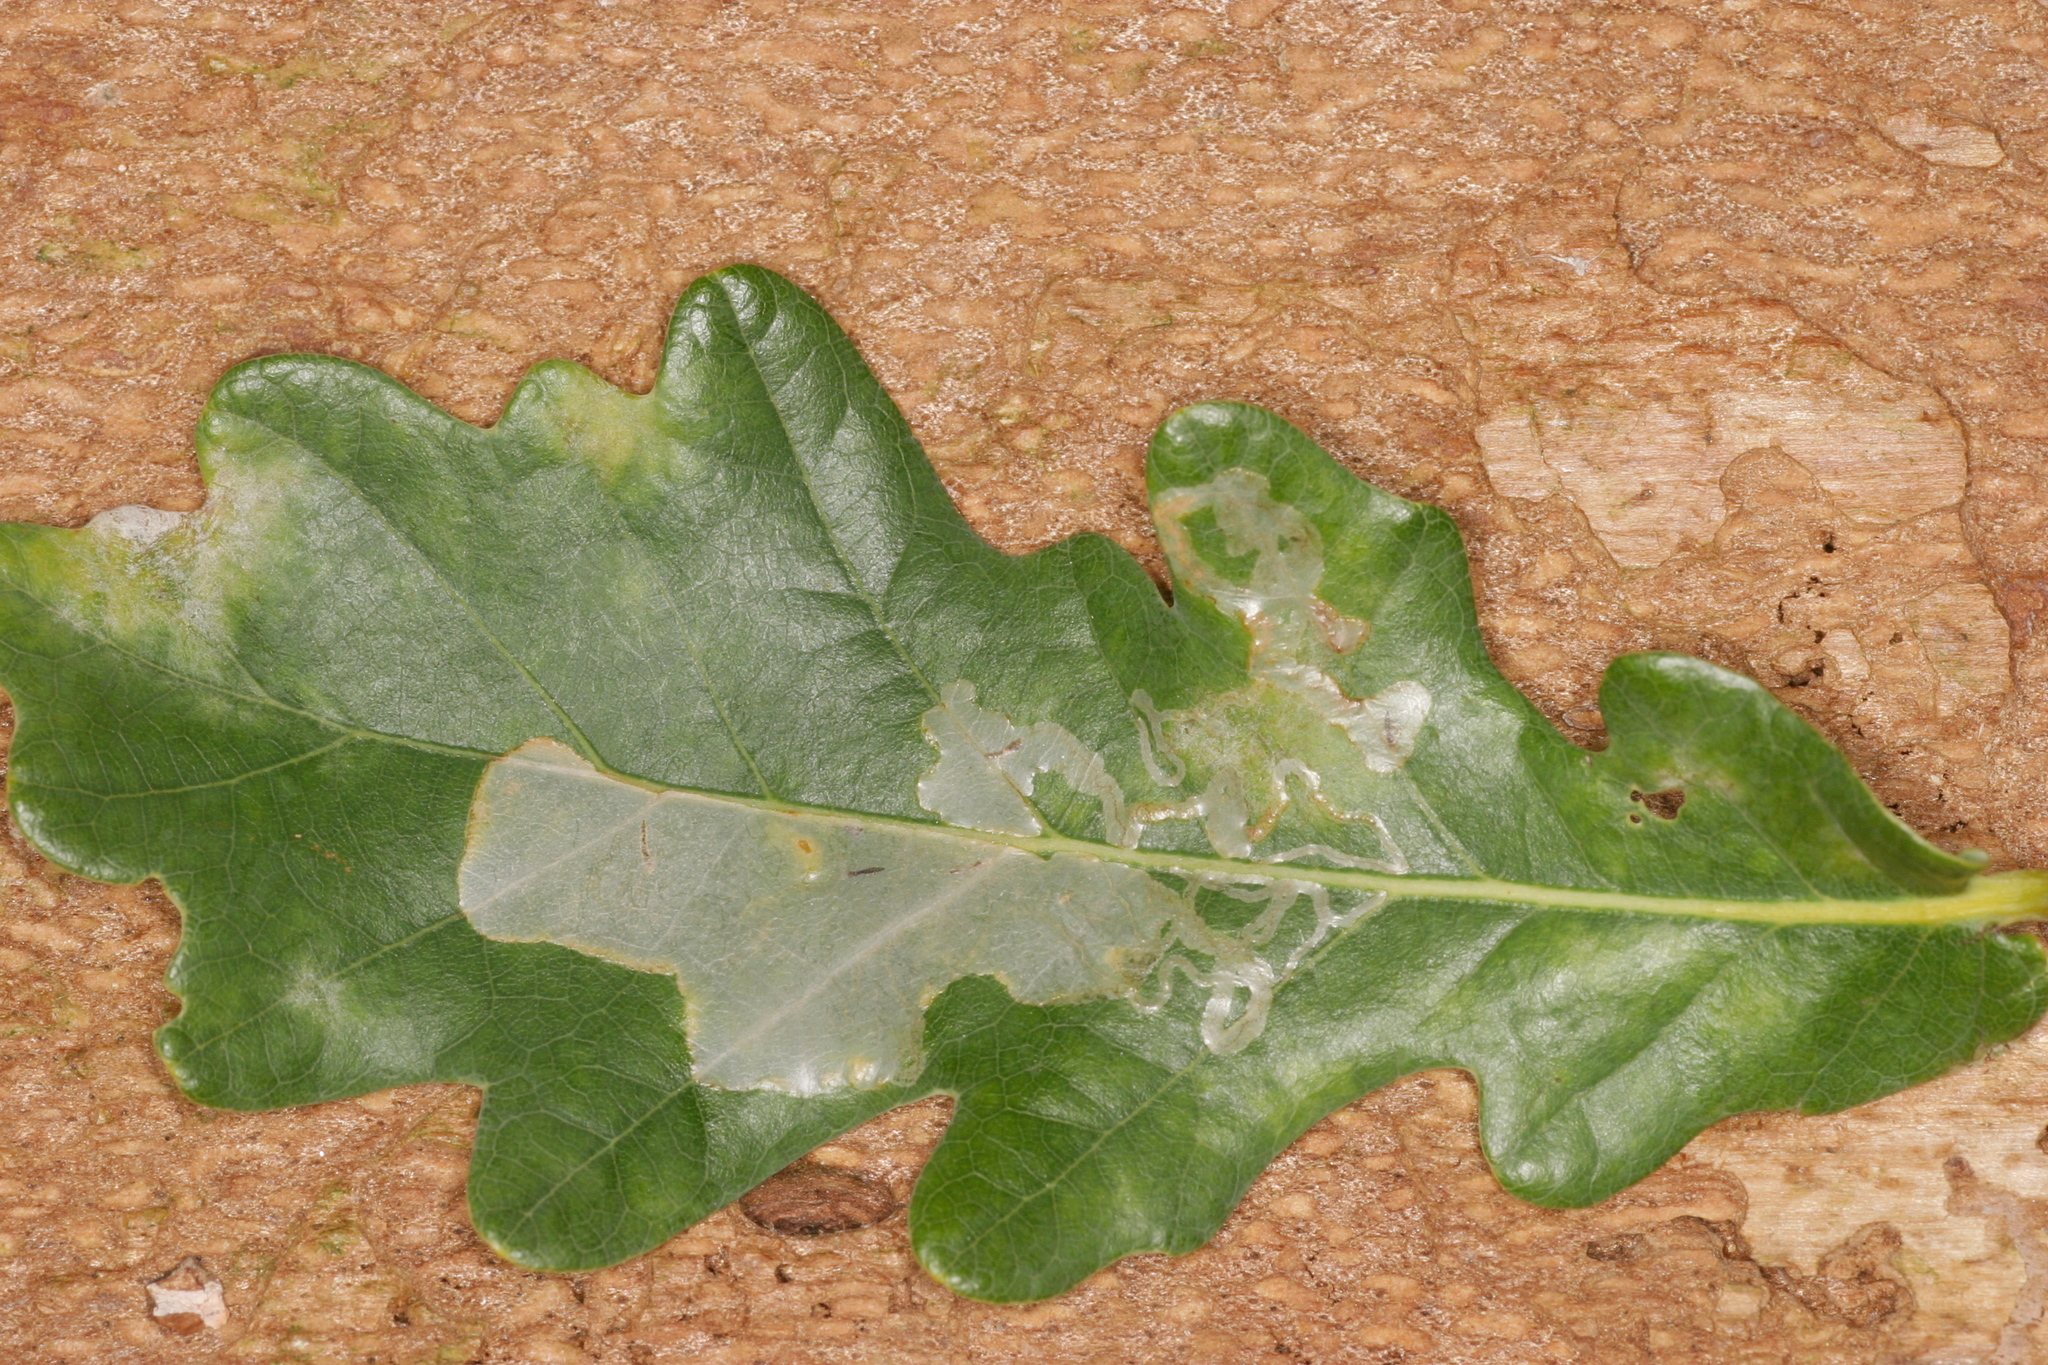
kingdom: Animalia
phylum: Arthropoda
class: Insecta
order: Lepidoptera
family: Gracillariidae
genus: Acrocercops
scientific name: Acrocercops brongniardella
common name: Brown oak slender
